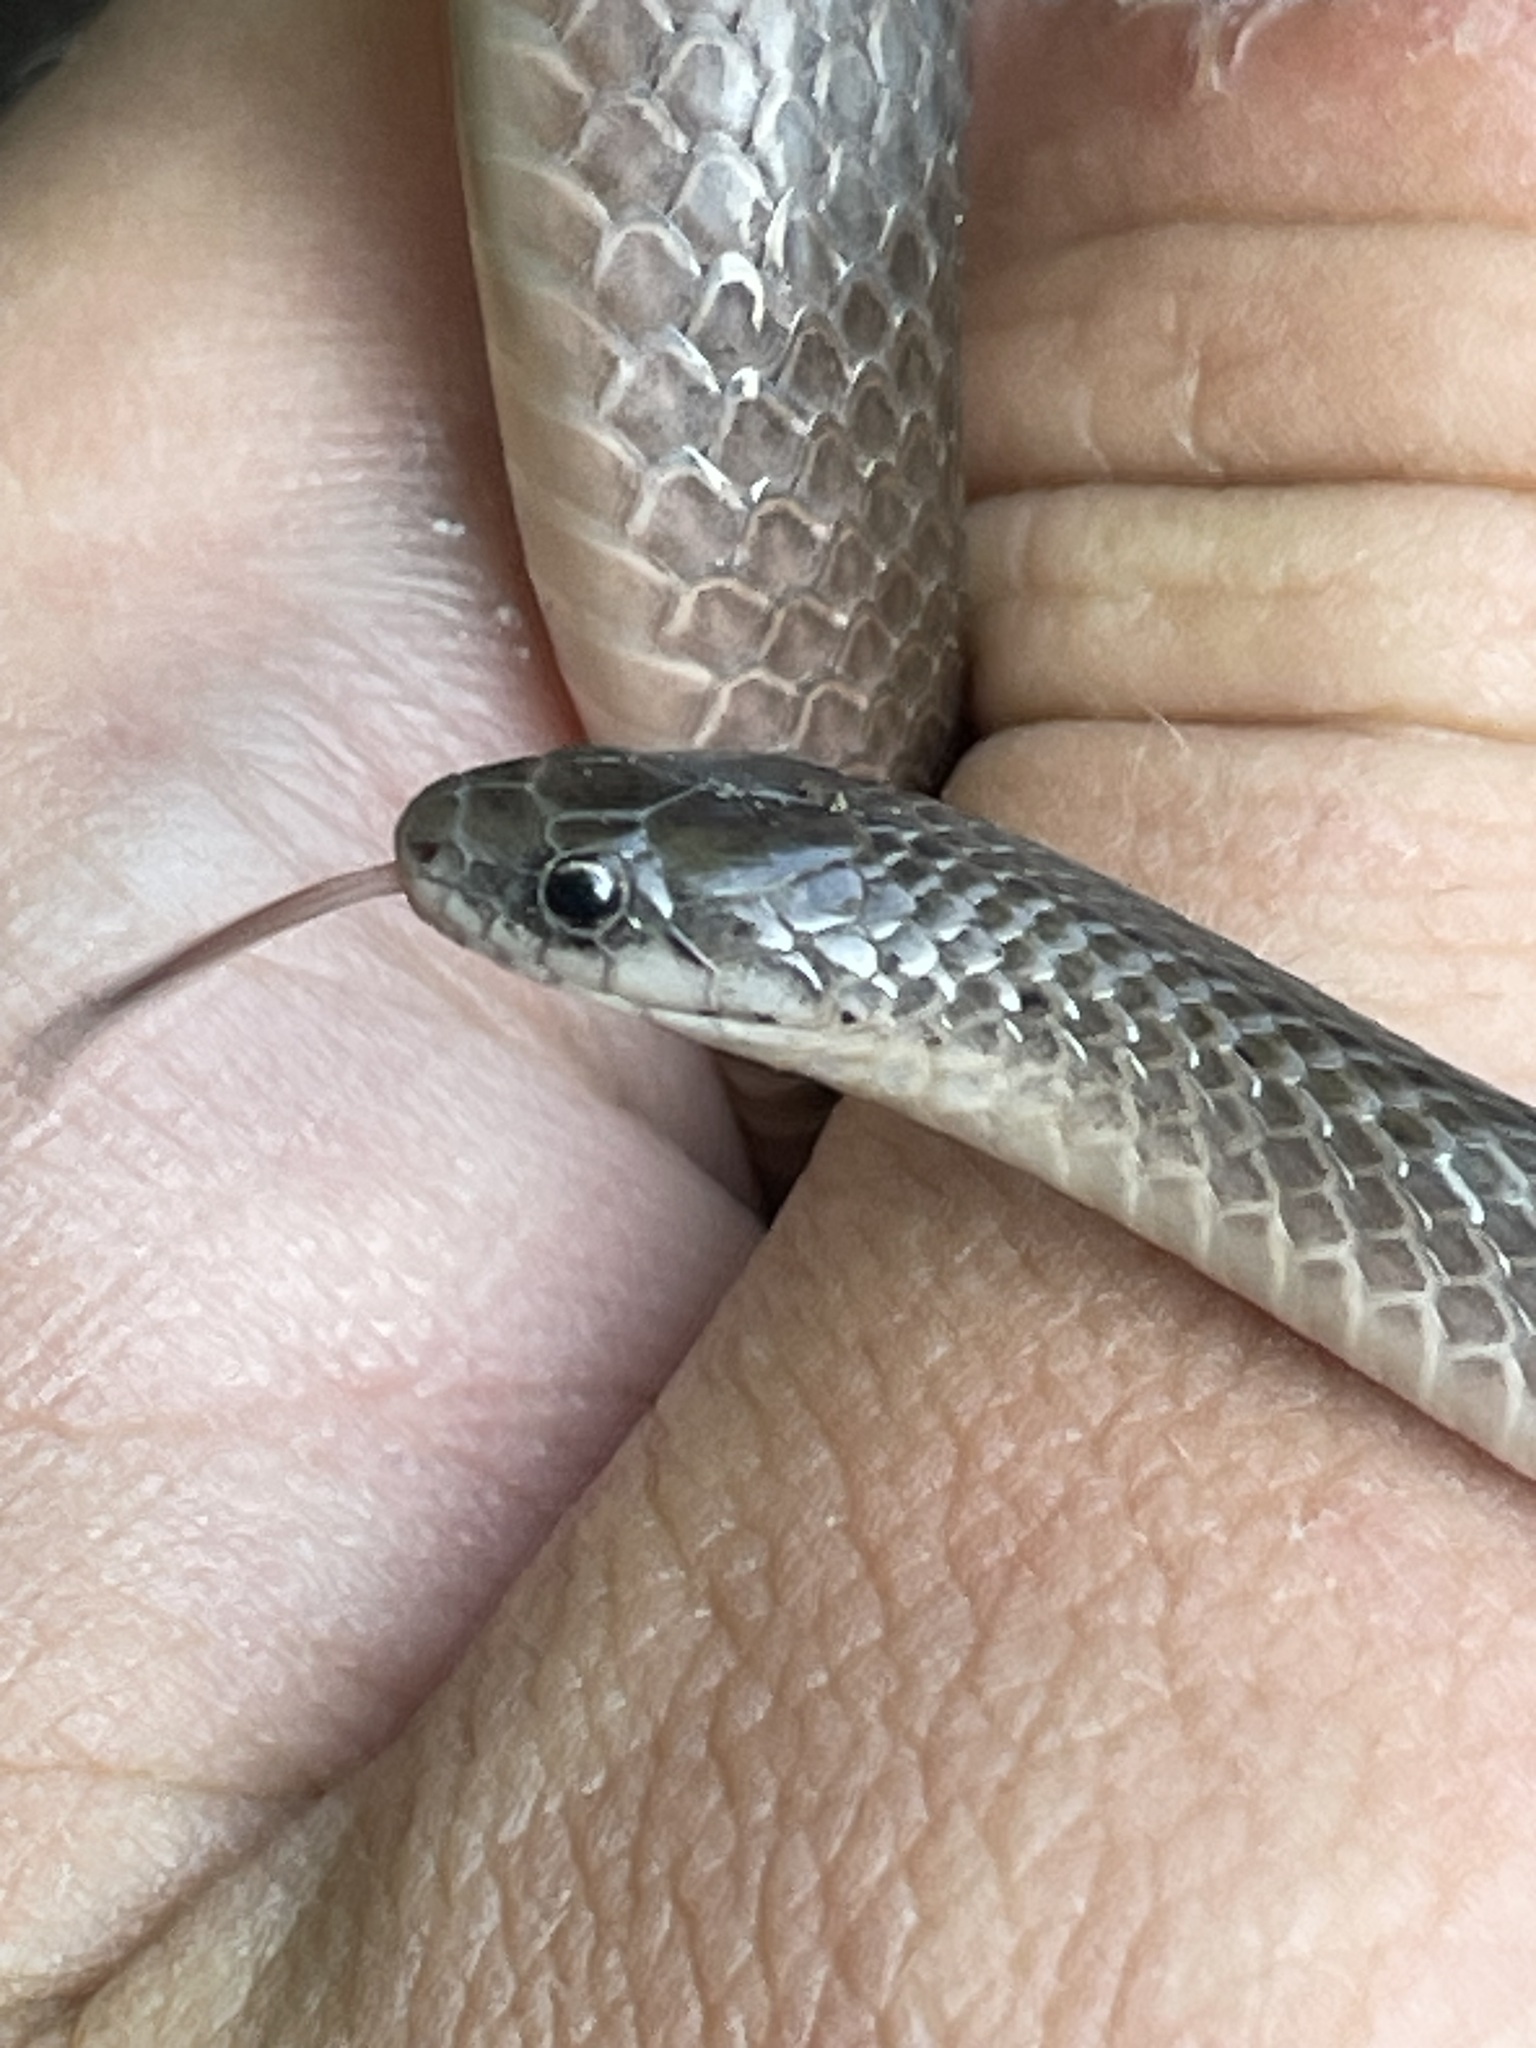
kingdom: Animalia
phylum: Chordata
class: Squamata
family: Colubridae
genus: Virginia
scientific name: Virginia valeriae
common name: Smooth earth snake
